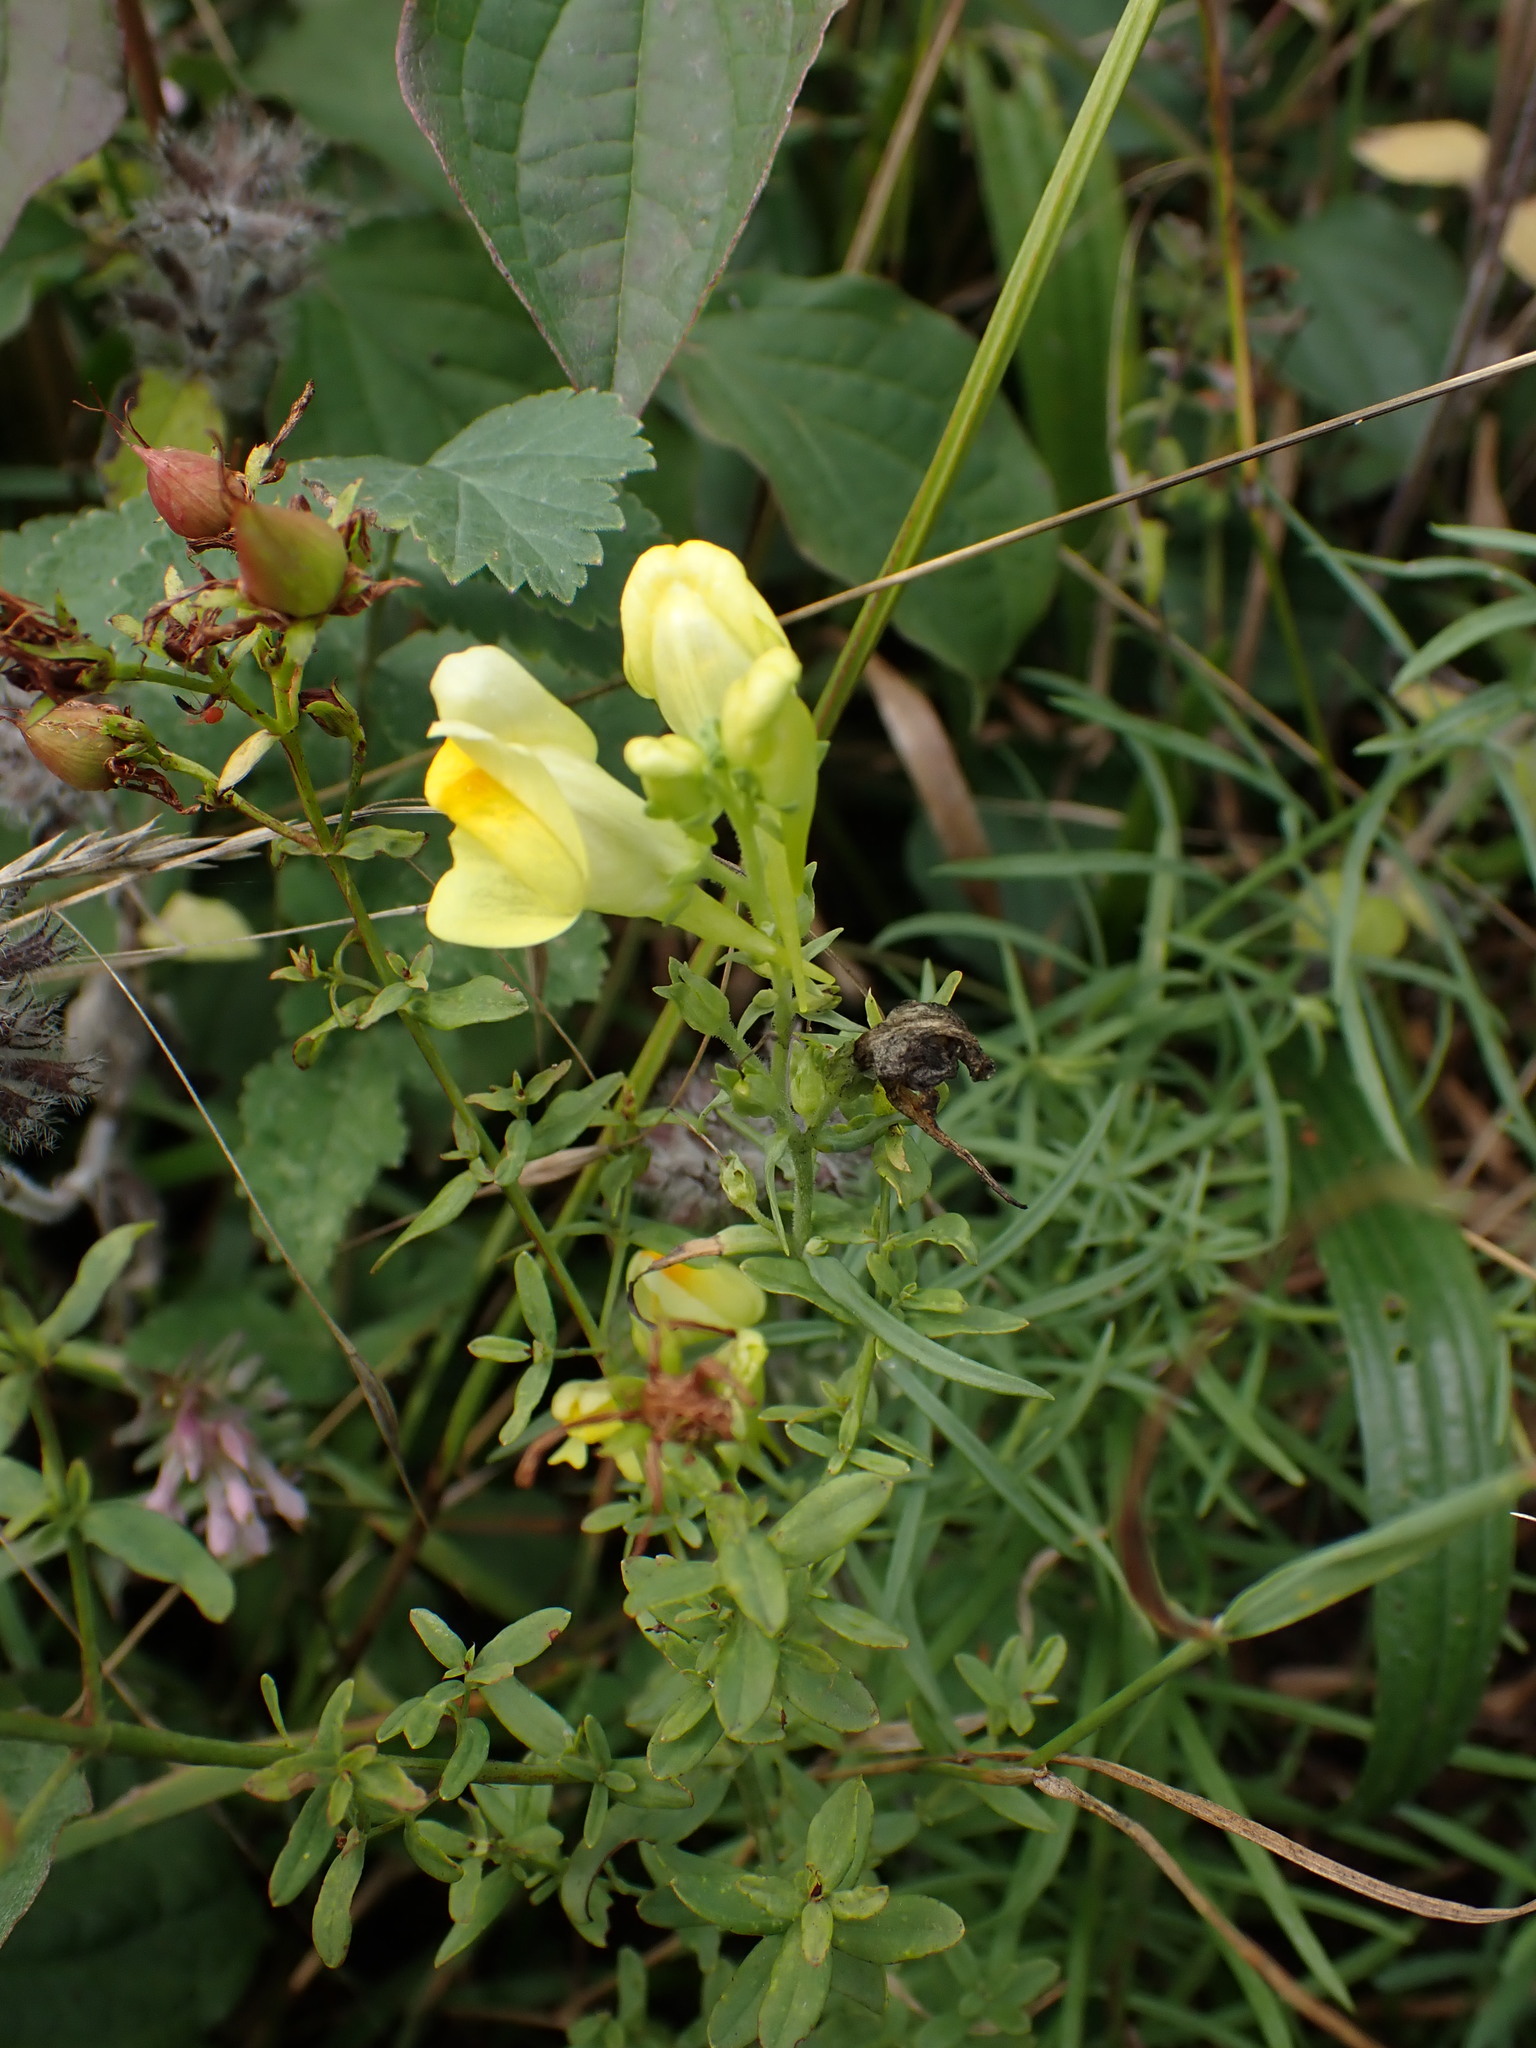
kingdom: Plantae
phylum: Tracheophyta
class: Magnoliopsida
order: Lamiales
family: Plantaginaceae
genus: Linaria
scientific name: Linaria vulgaris
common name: Butter and eggs
